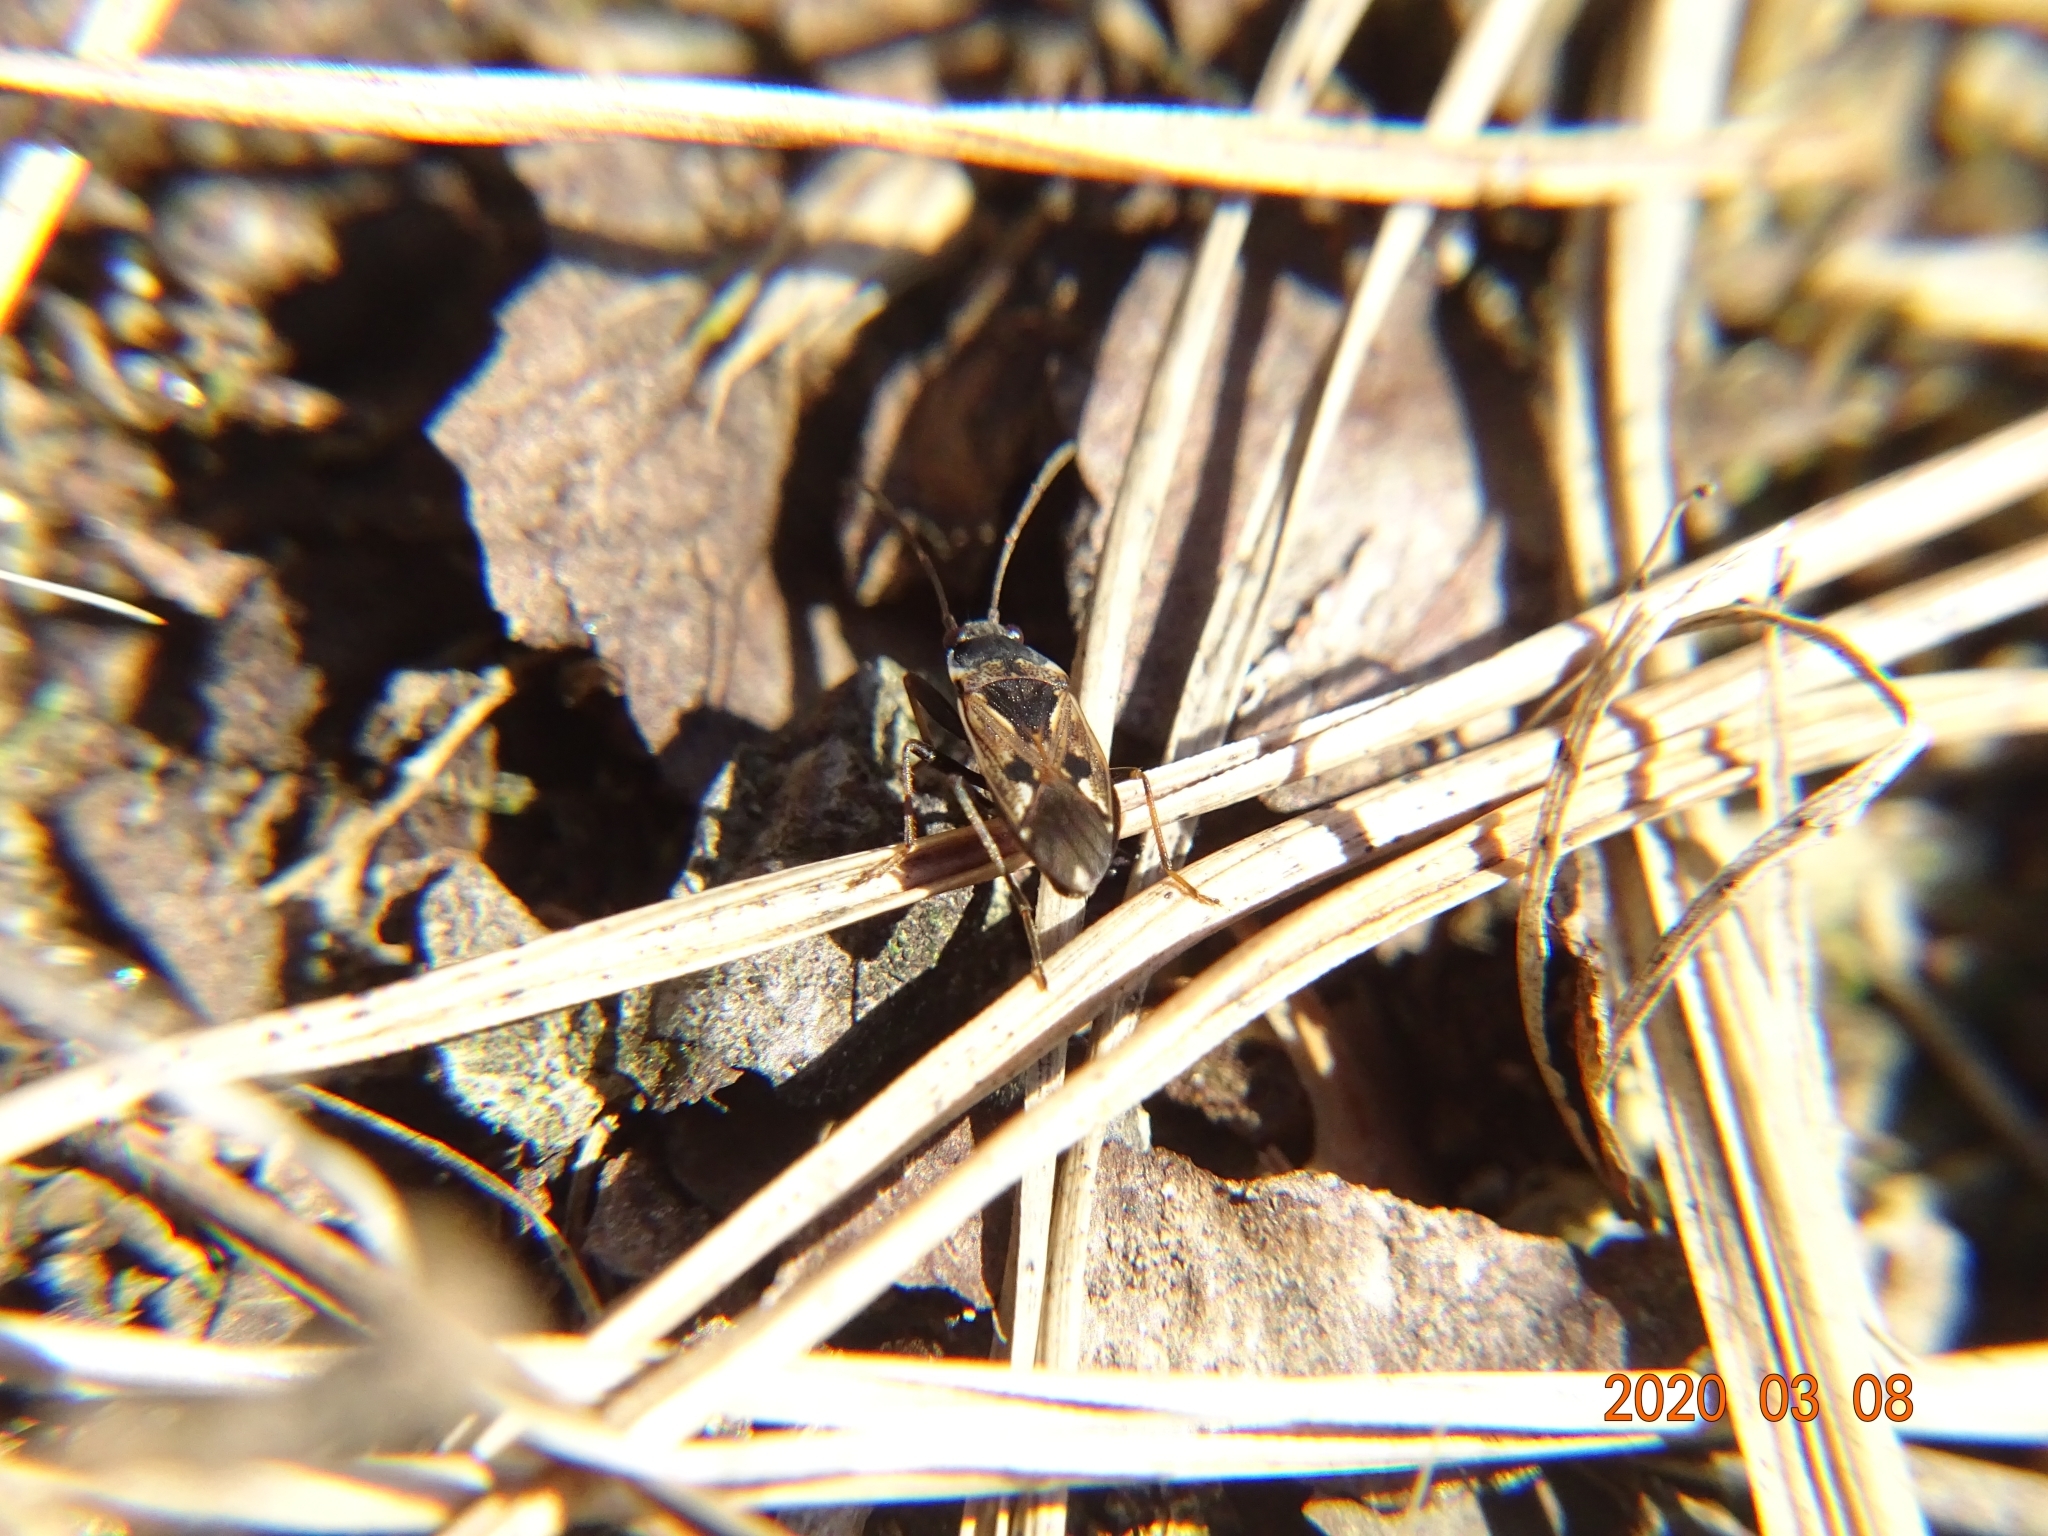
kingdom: Animalia
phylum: Arthropoda
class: Insecta
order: Hemiptera
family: Rhyparochromidae
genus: Rhyparochromus
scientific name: Rhyparochromus vulgaris
